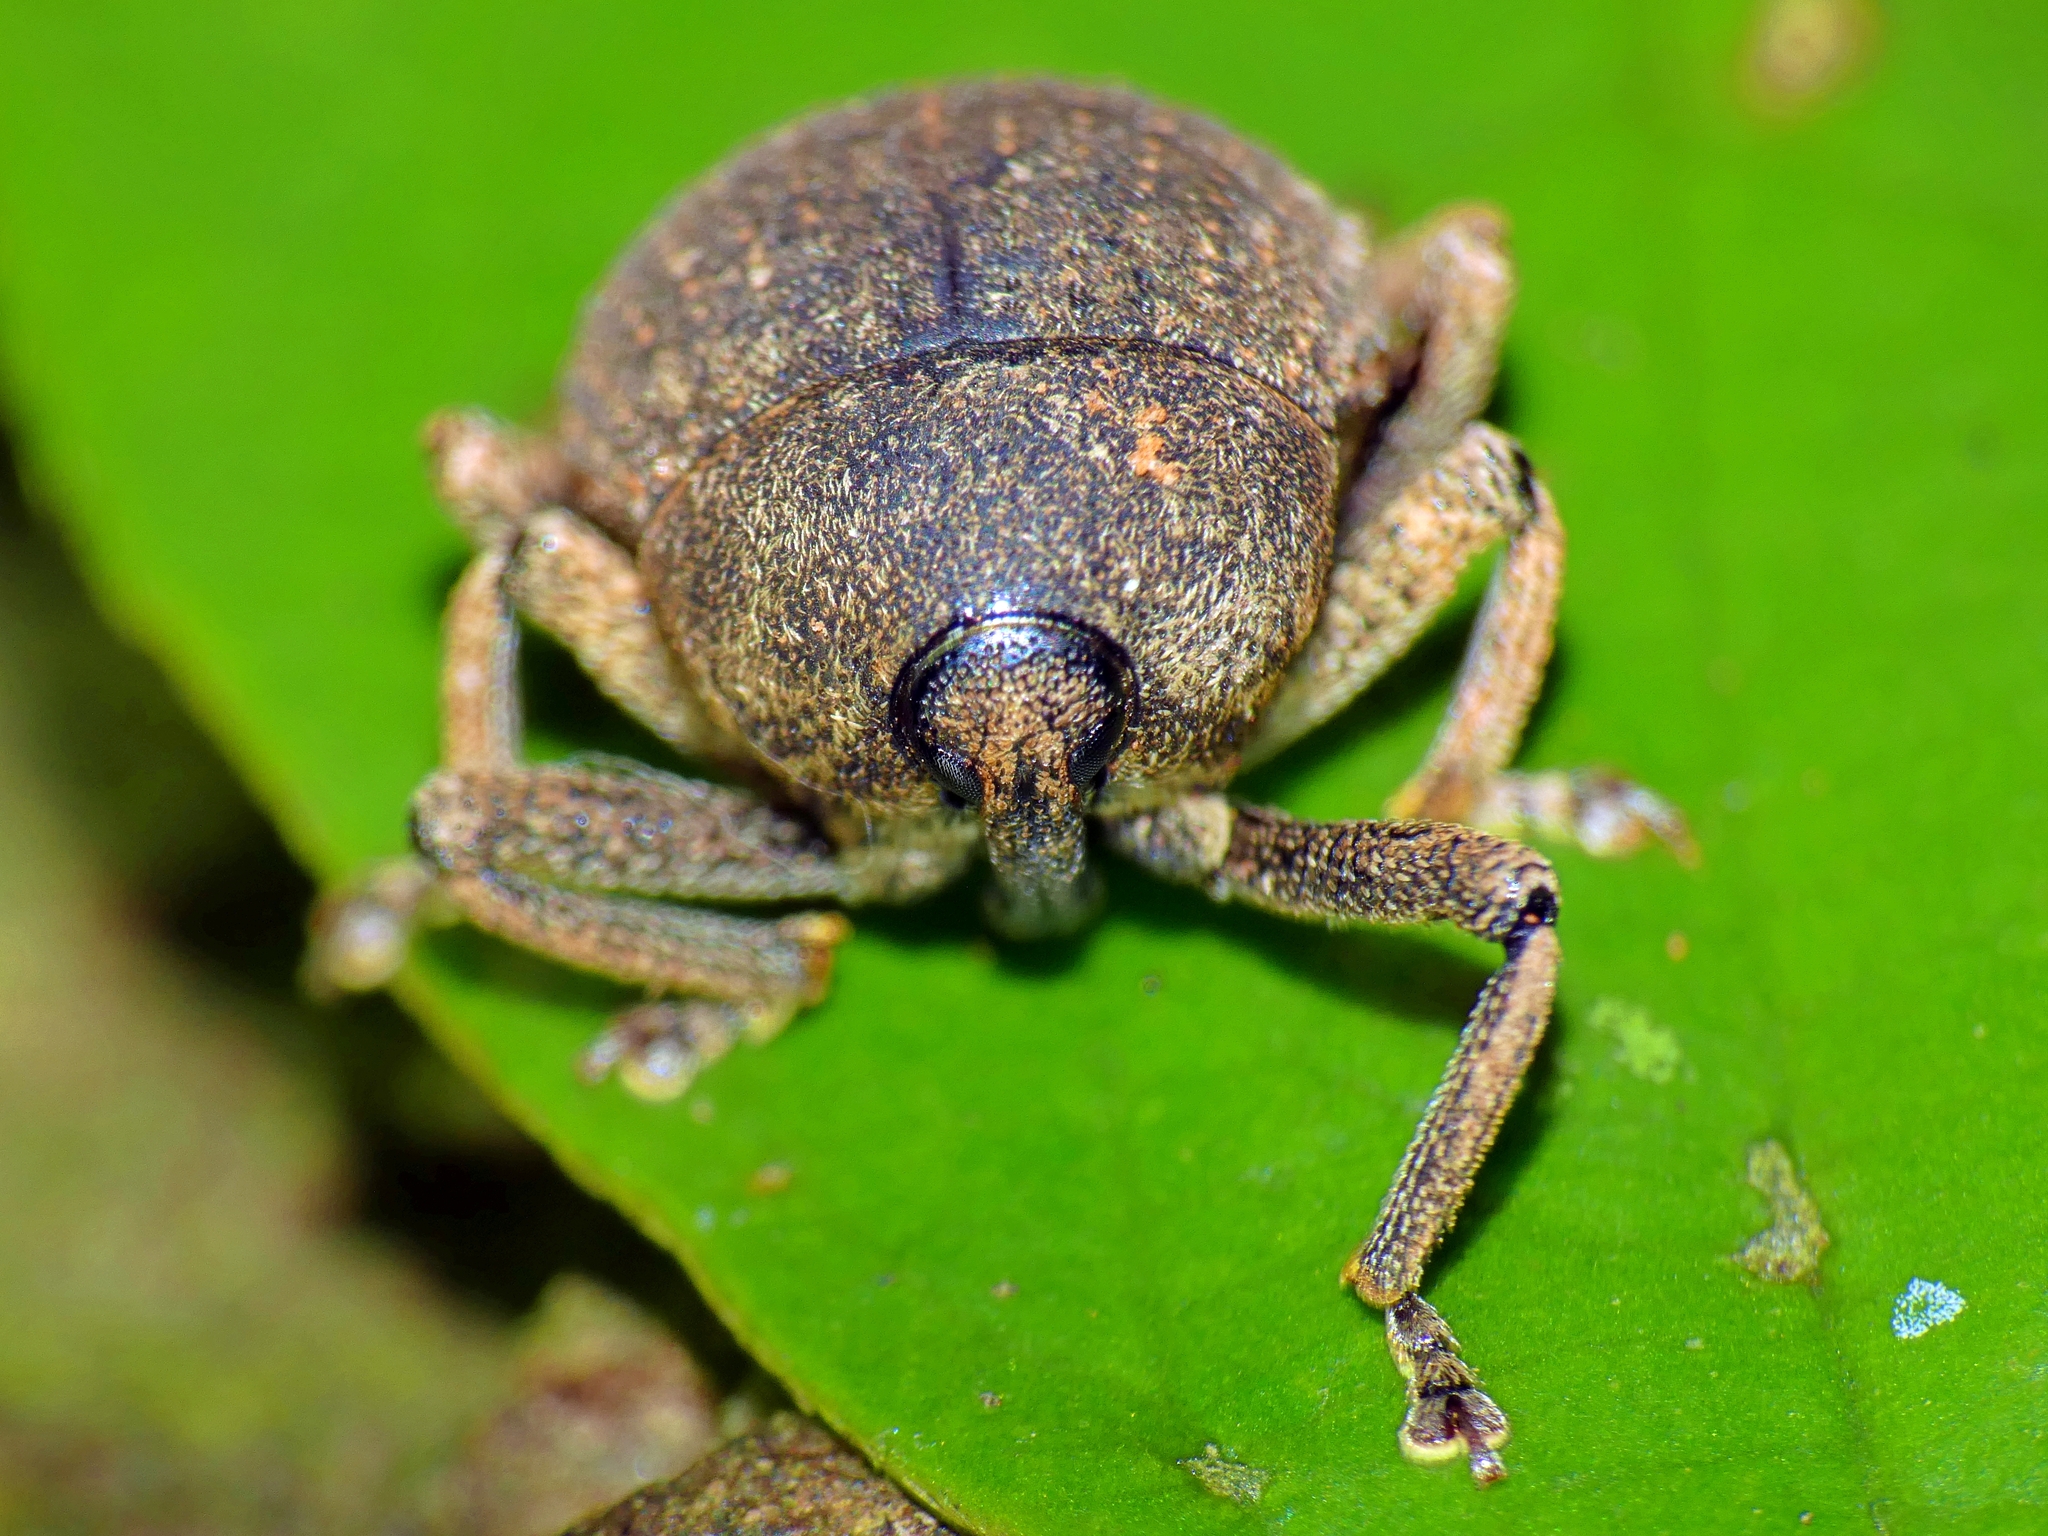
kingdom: Animalia
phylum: Arthropoda
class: Insecta
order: Coleoptera
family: Curculionidae
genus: Parasalcus
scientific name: Parasalcus latissimus
